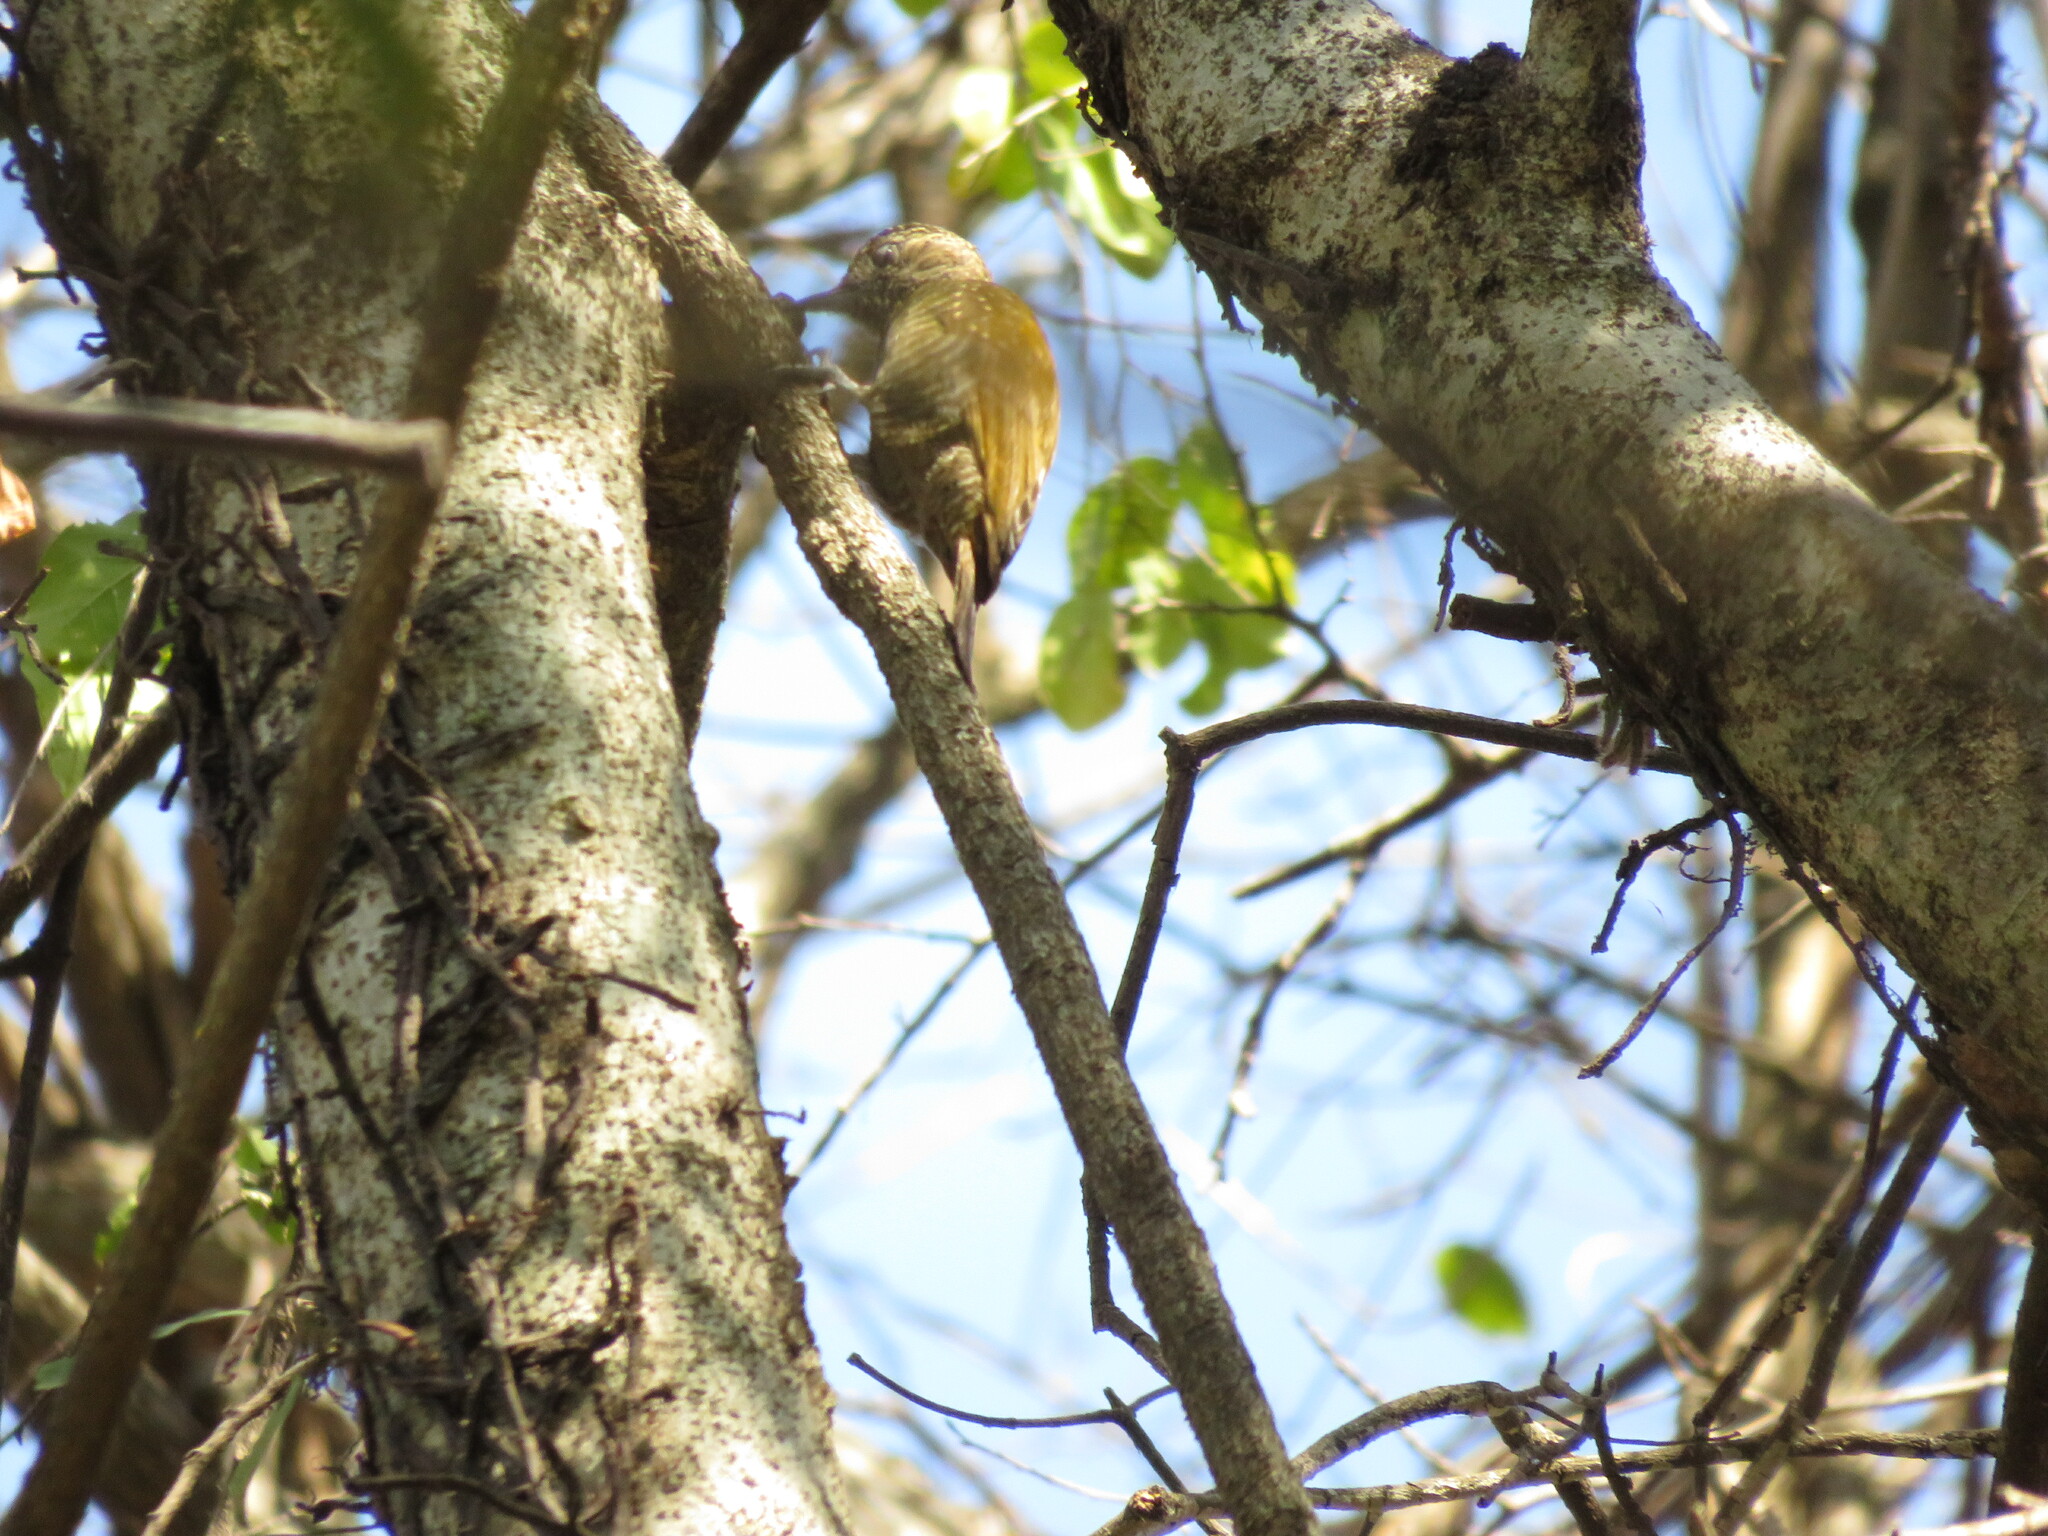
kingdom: Animalia
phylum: Chordata
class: Aves
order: Piciformes
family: Picidae
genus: Veniliornis
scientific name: Veniliornis frontalis
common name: Dot-fronted woodpecker
